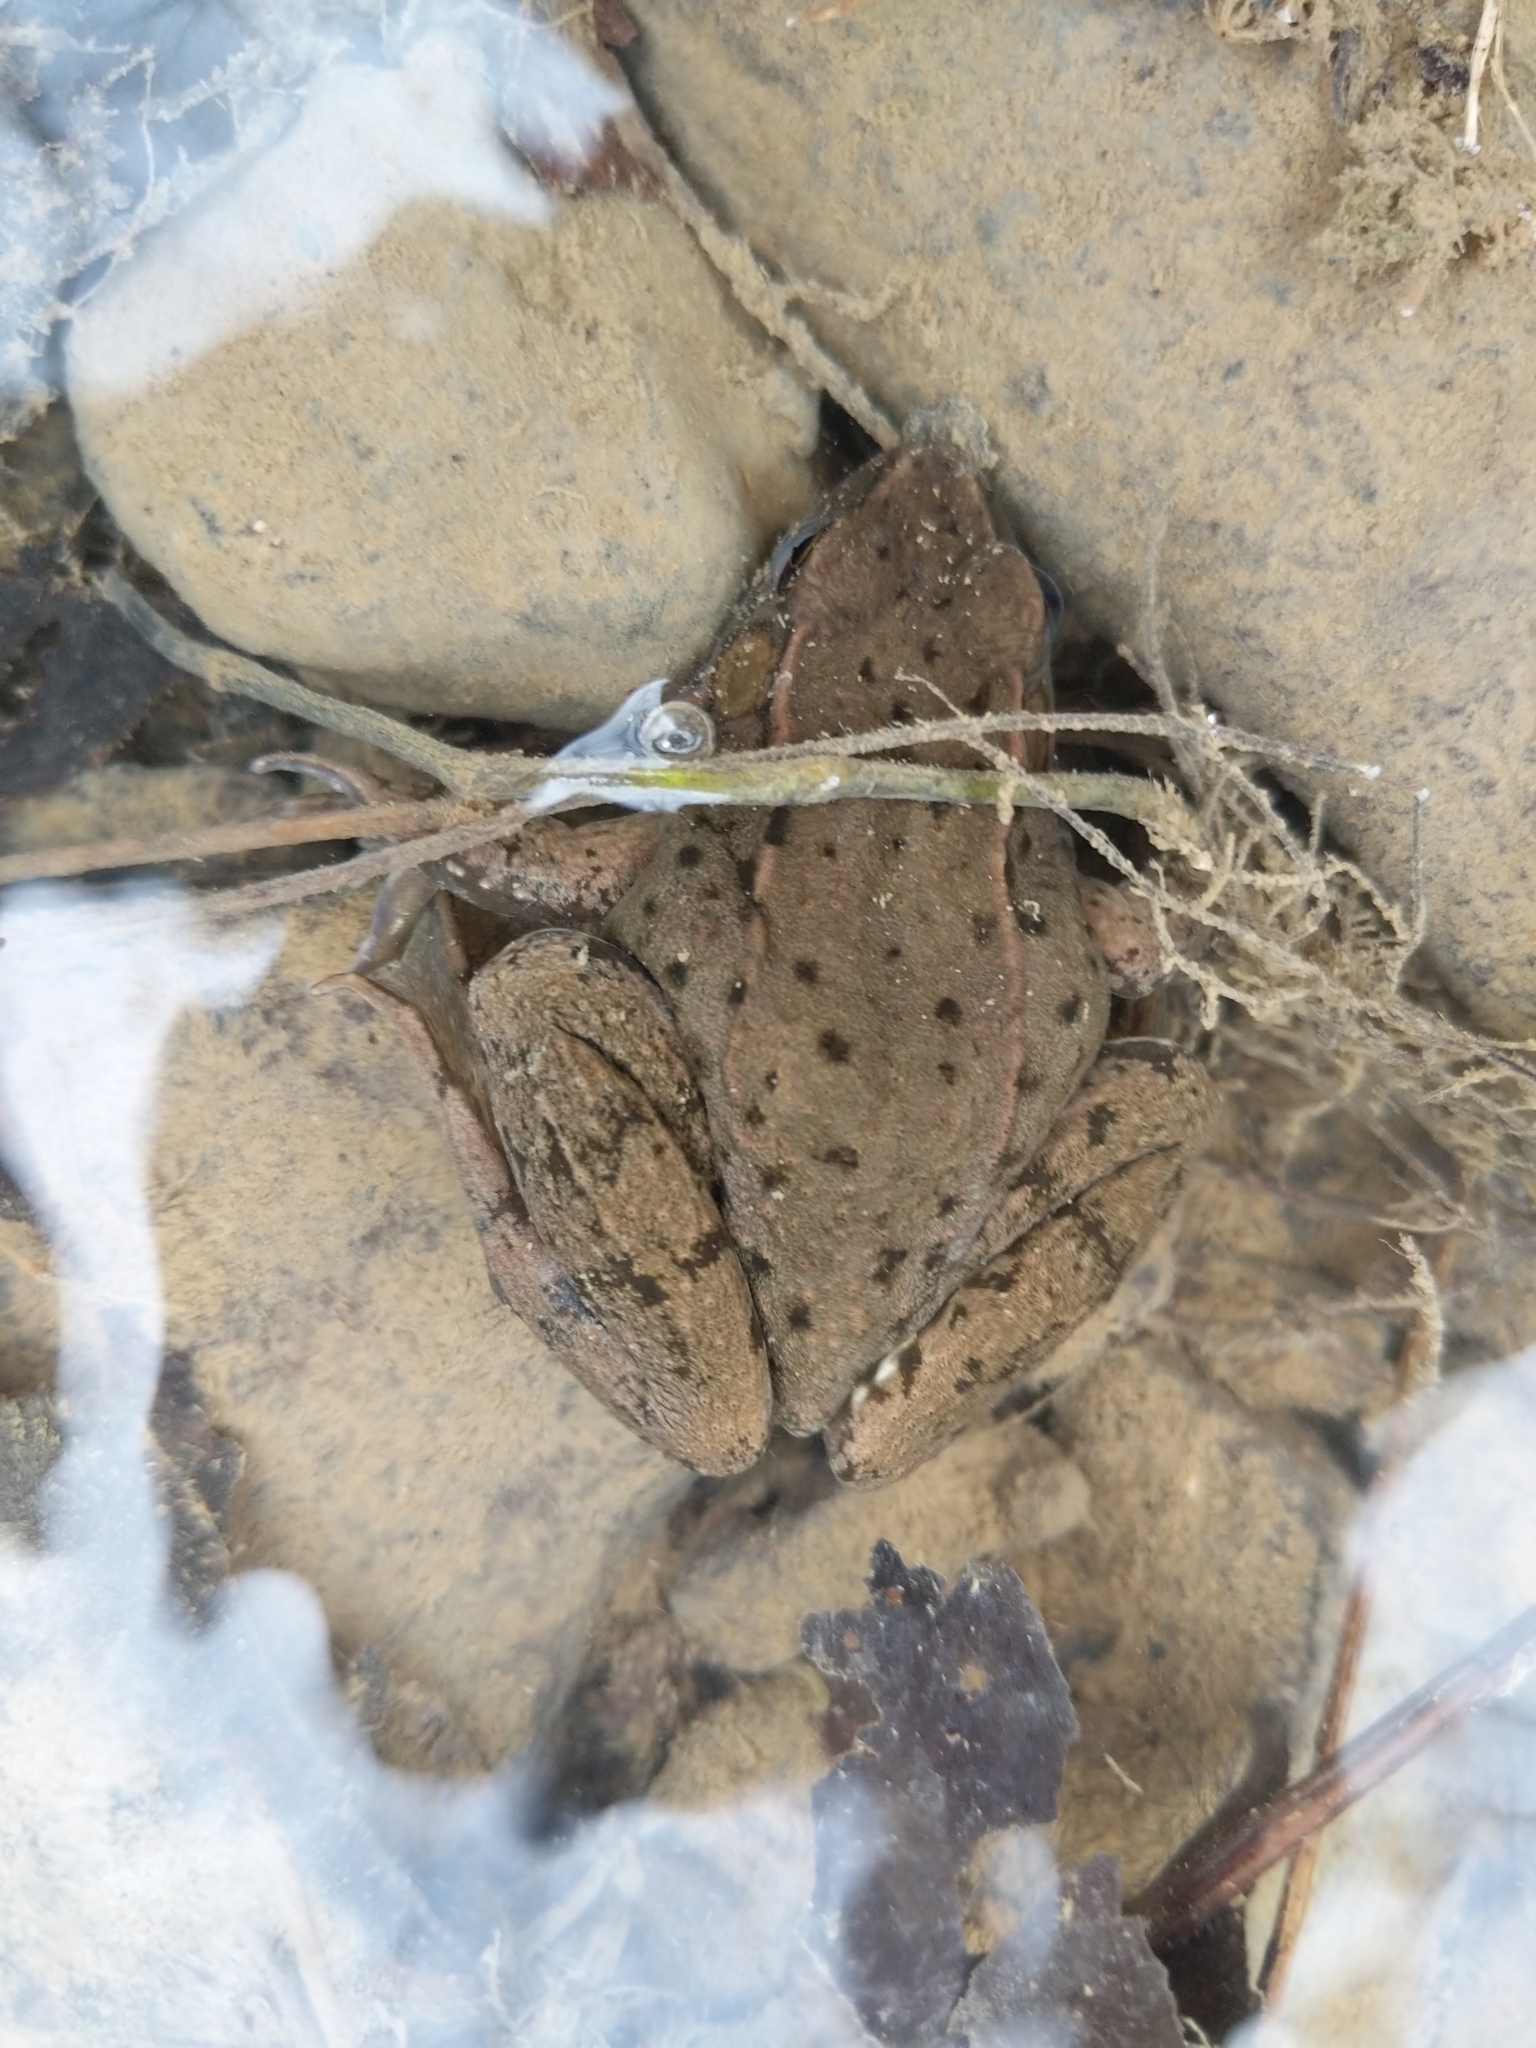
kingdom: Animalia
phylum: Chordata
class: Amphibia
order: Anura
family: Ranidae
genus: Lithobates
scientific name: Lithobates clamitans
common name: Green frog
